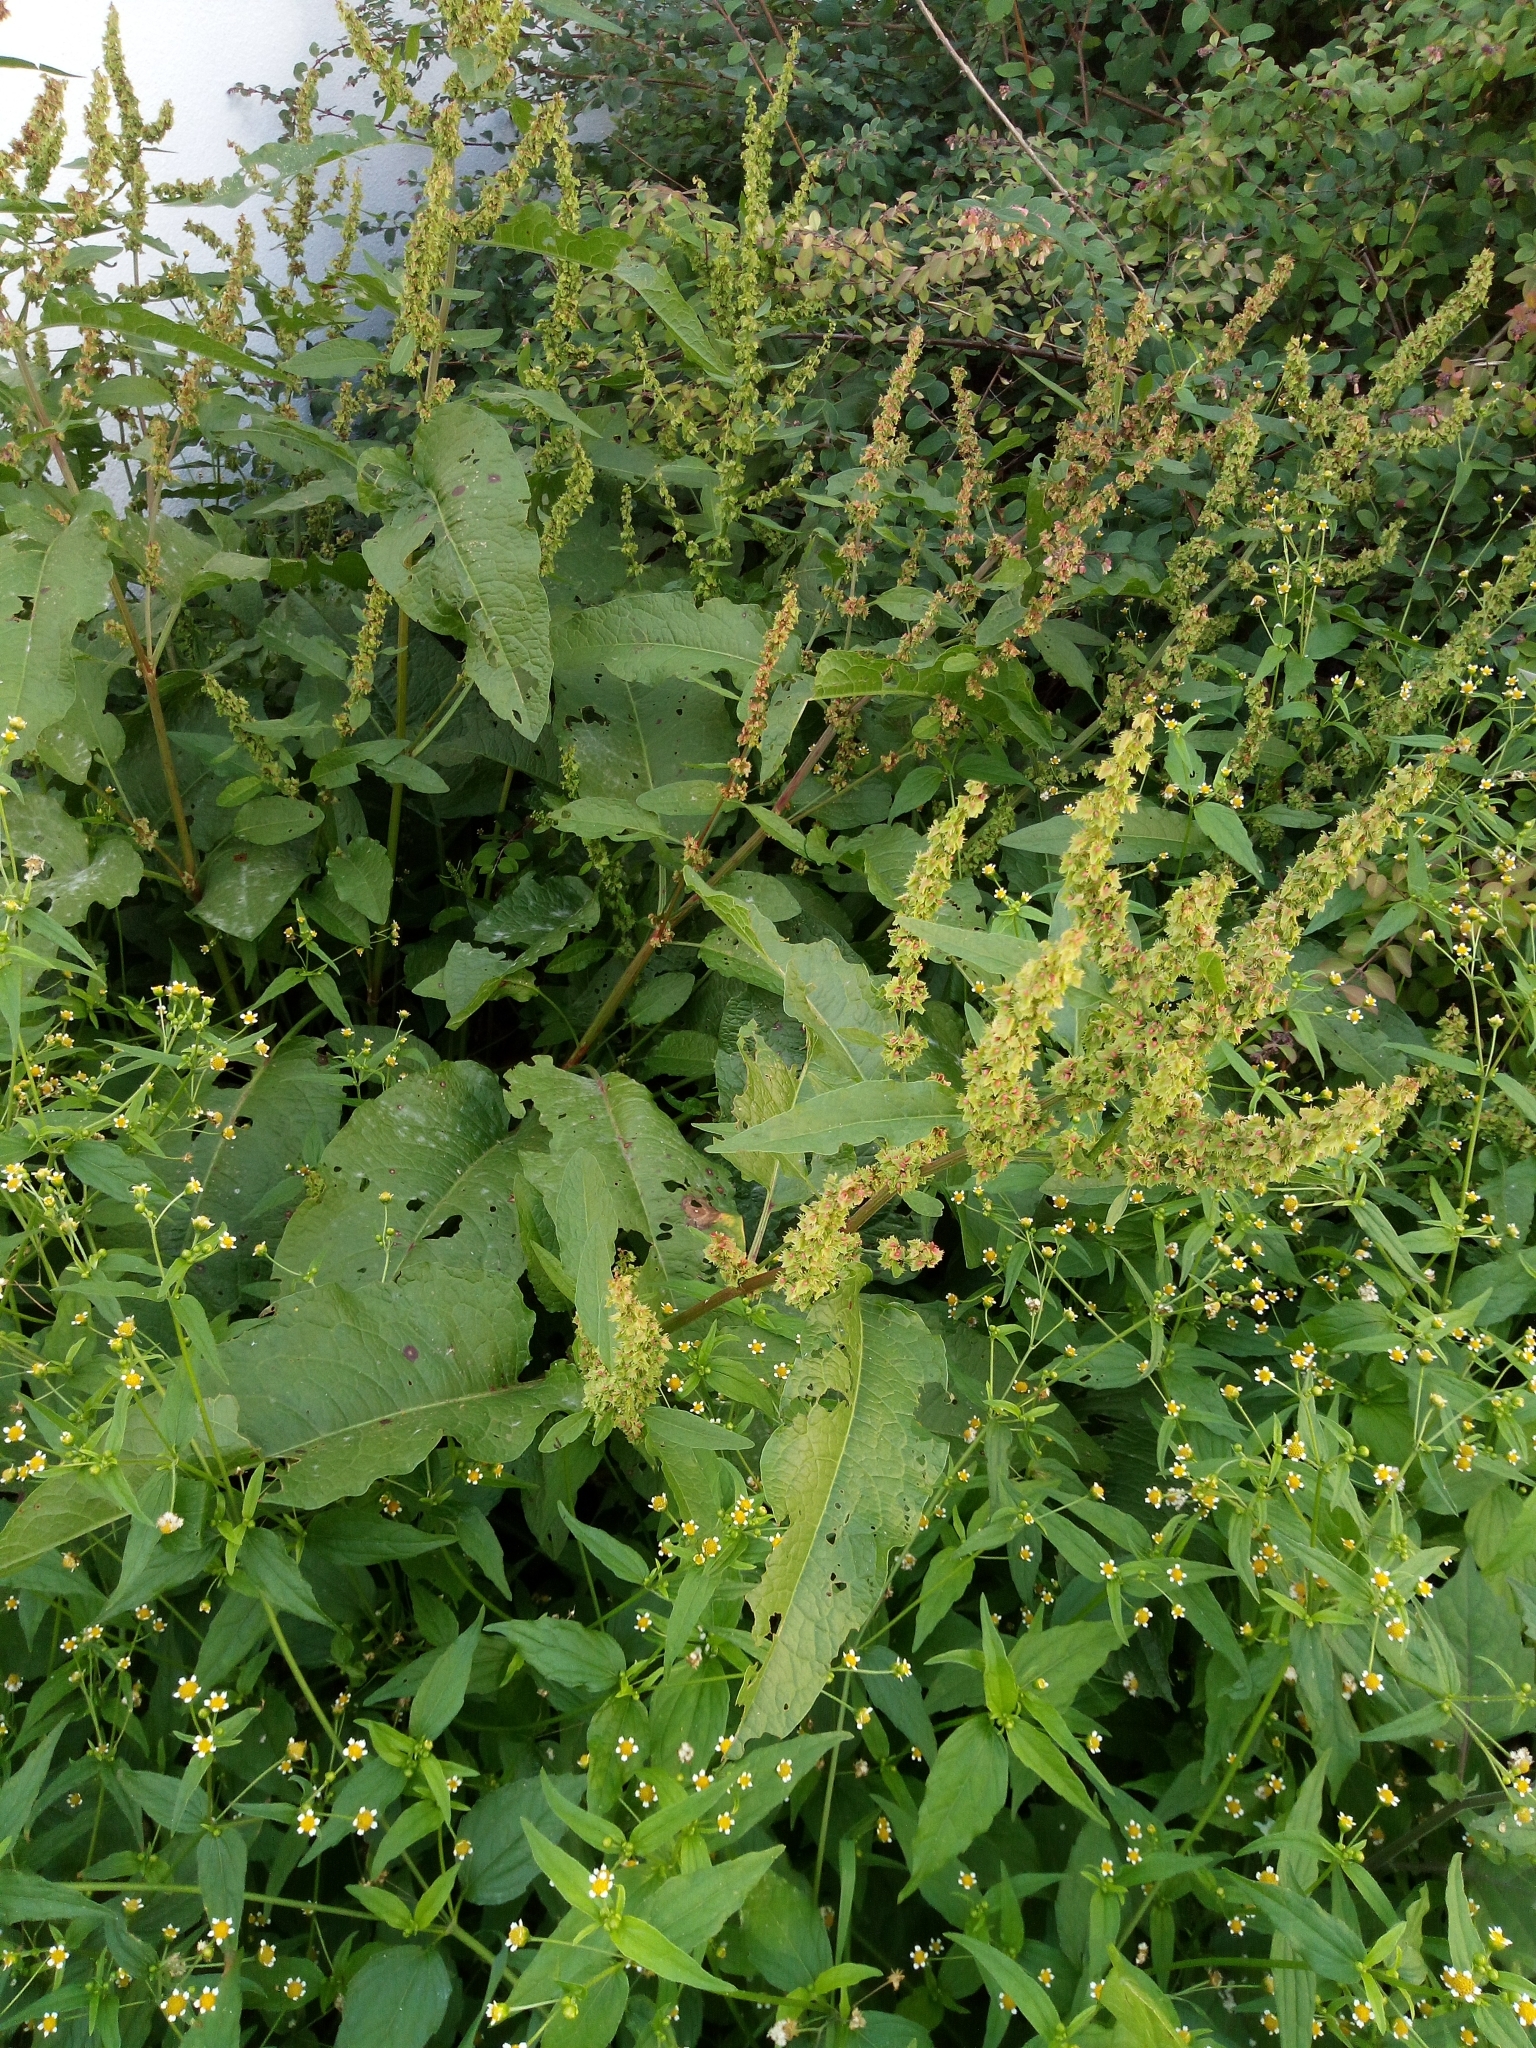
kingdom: Plantae
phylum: Tracheophyta
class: Magnoliopsida
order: Caryophyllales
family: Polygonaceae
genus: Rumex
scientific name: Rumex obtusifolius
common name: Bitter dock
